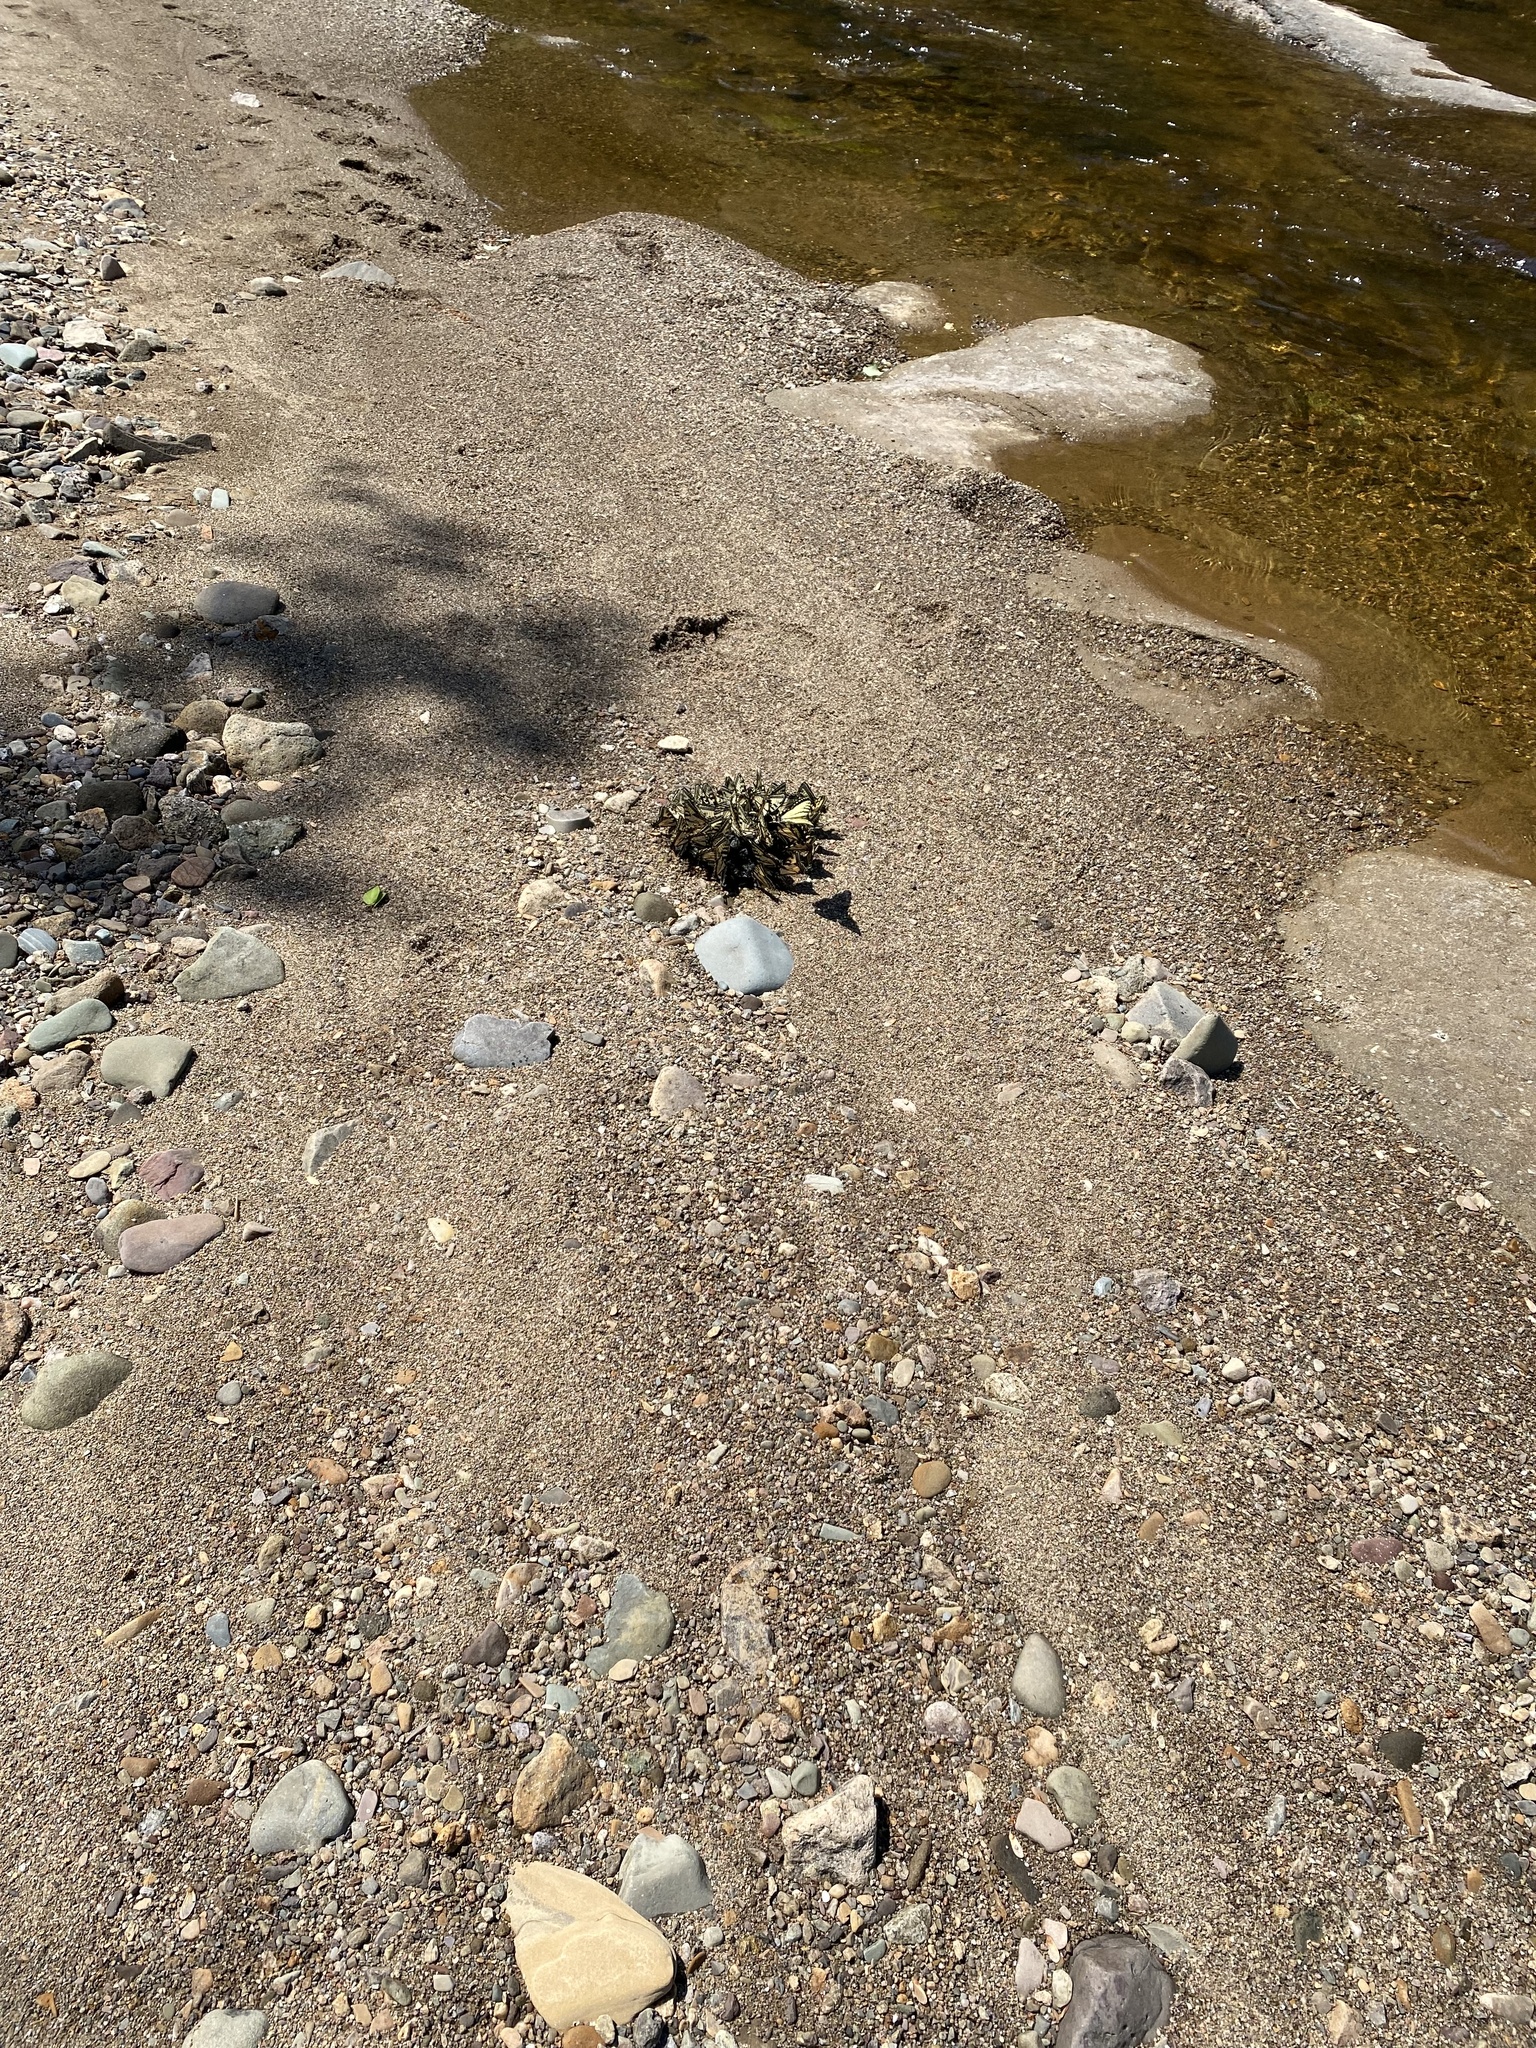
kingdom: Animalia
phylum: Arthropoda
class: Insecta
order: Lepidoptera
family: Papilionidae
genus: Papilio
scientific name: Papilio canadensis
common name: Canadian tiger swallowtail
